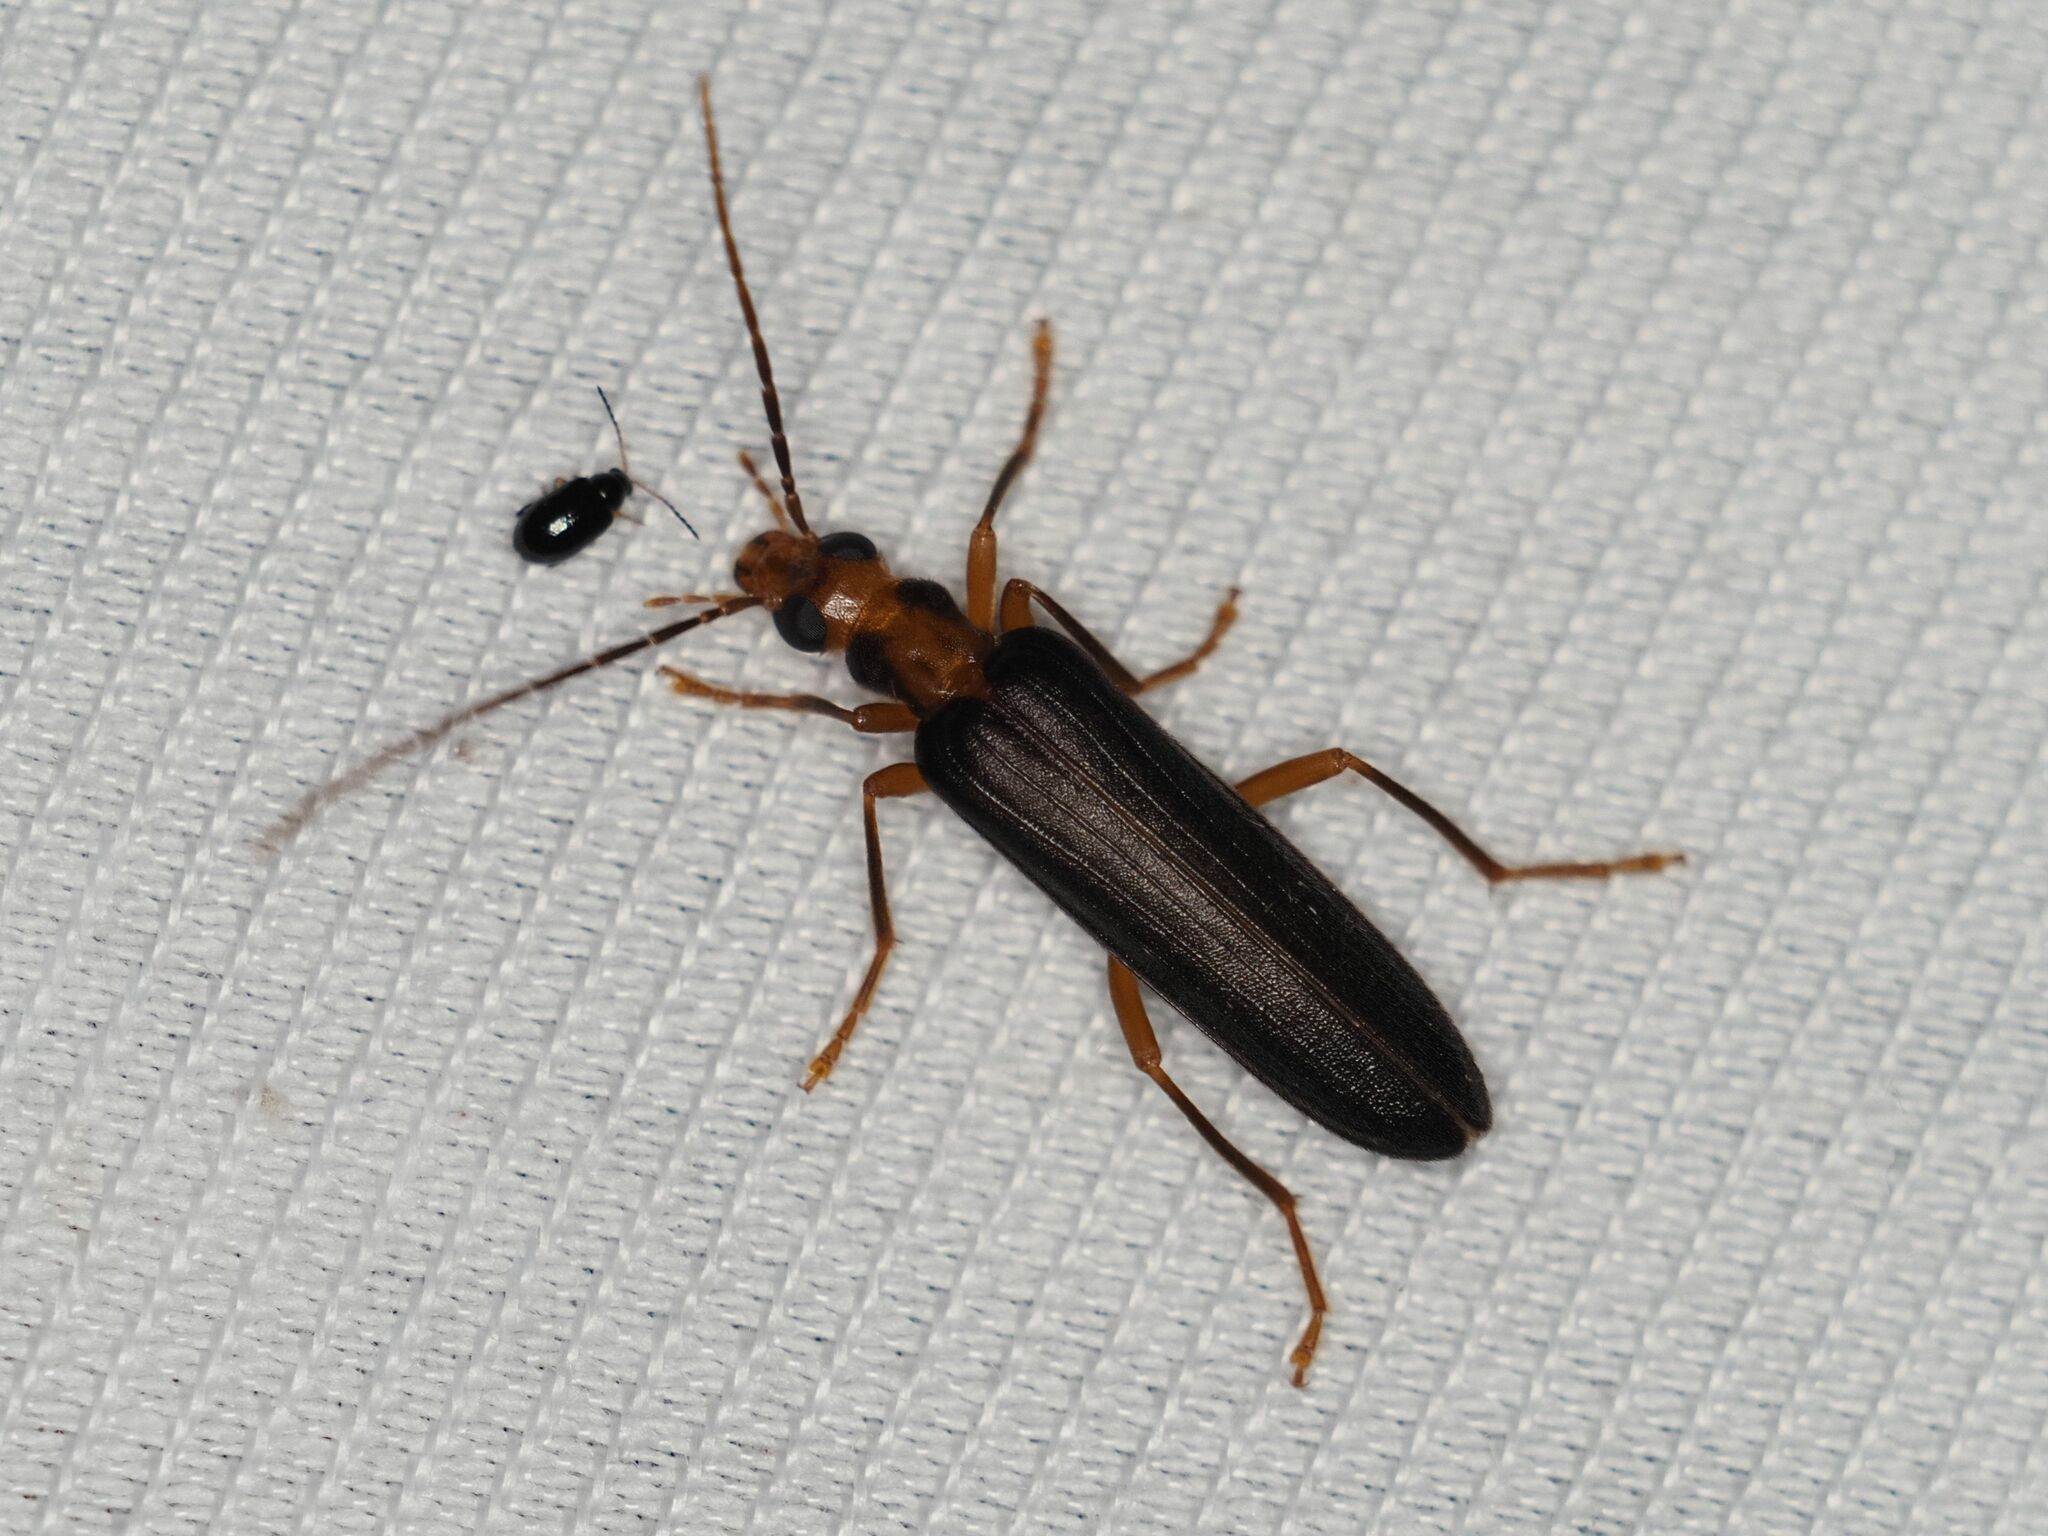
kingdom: Animalia
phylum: Arthropoda
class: Insecta
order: Coleoptera
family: Oedemeridae
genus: Nacerdes
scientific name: Nacerdes carniolica
